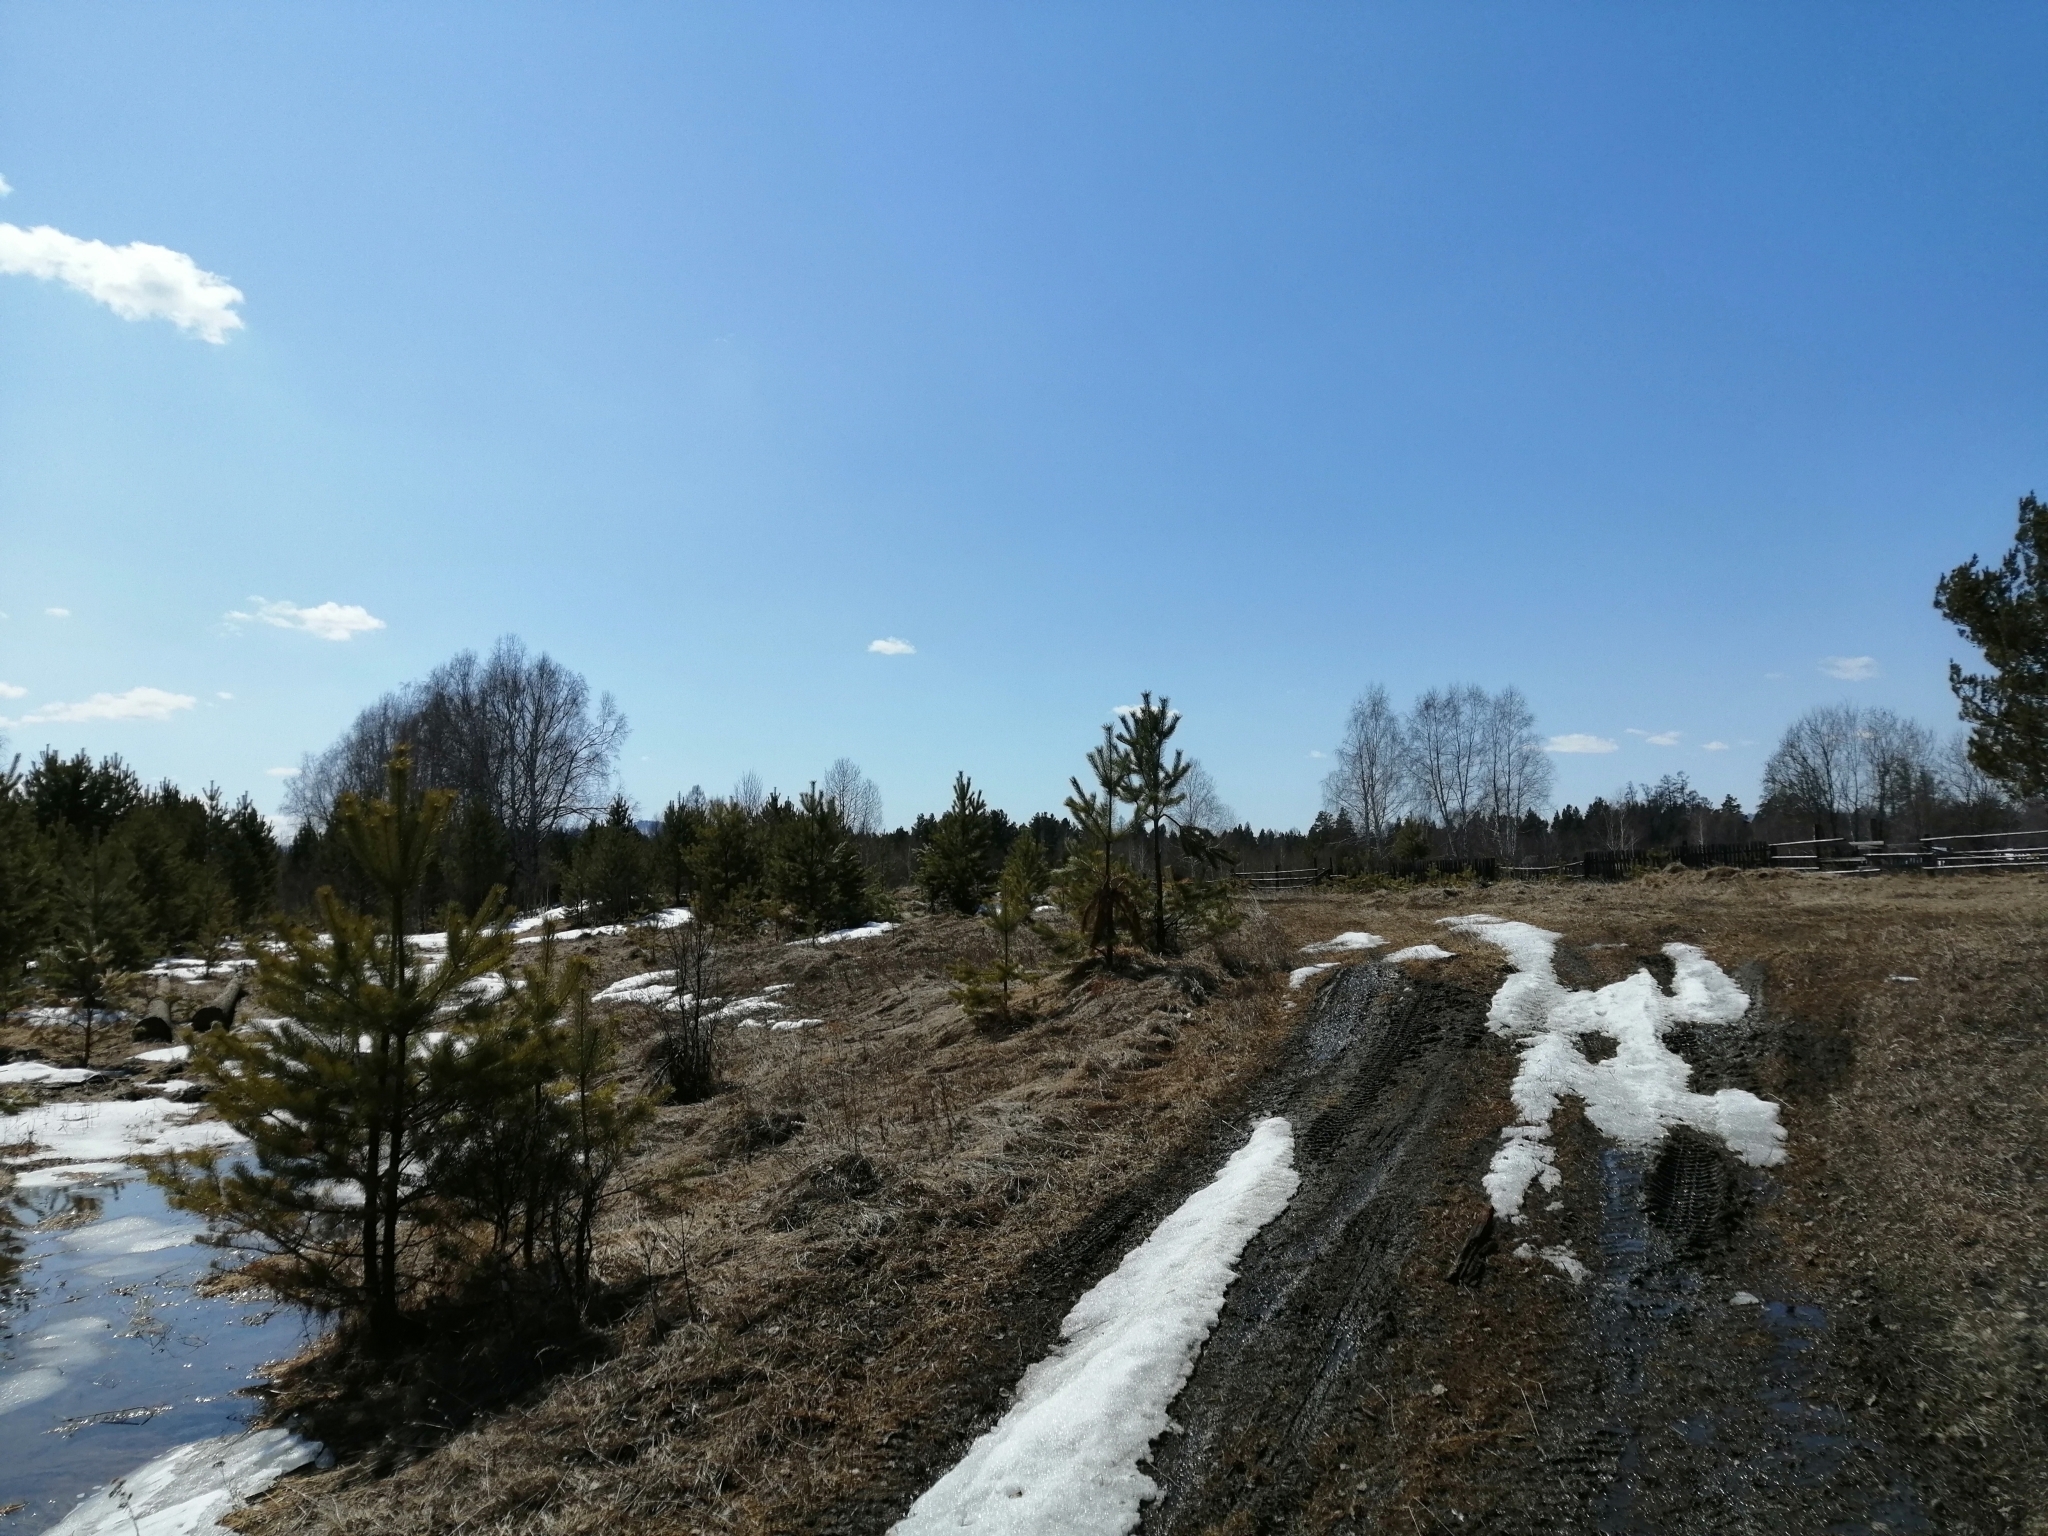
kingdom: Plantae
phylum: Tracheophyta
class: Pinopsida
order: Pinales
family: Pinaceae
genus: Pinus
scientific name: Pinus sylvestris
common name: Scots pine
